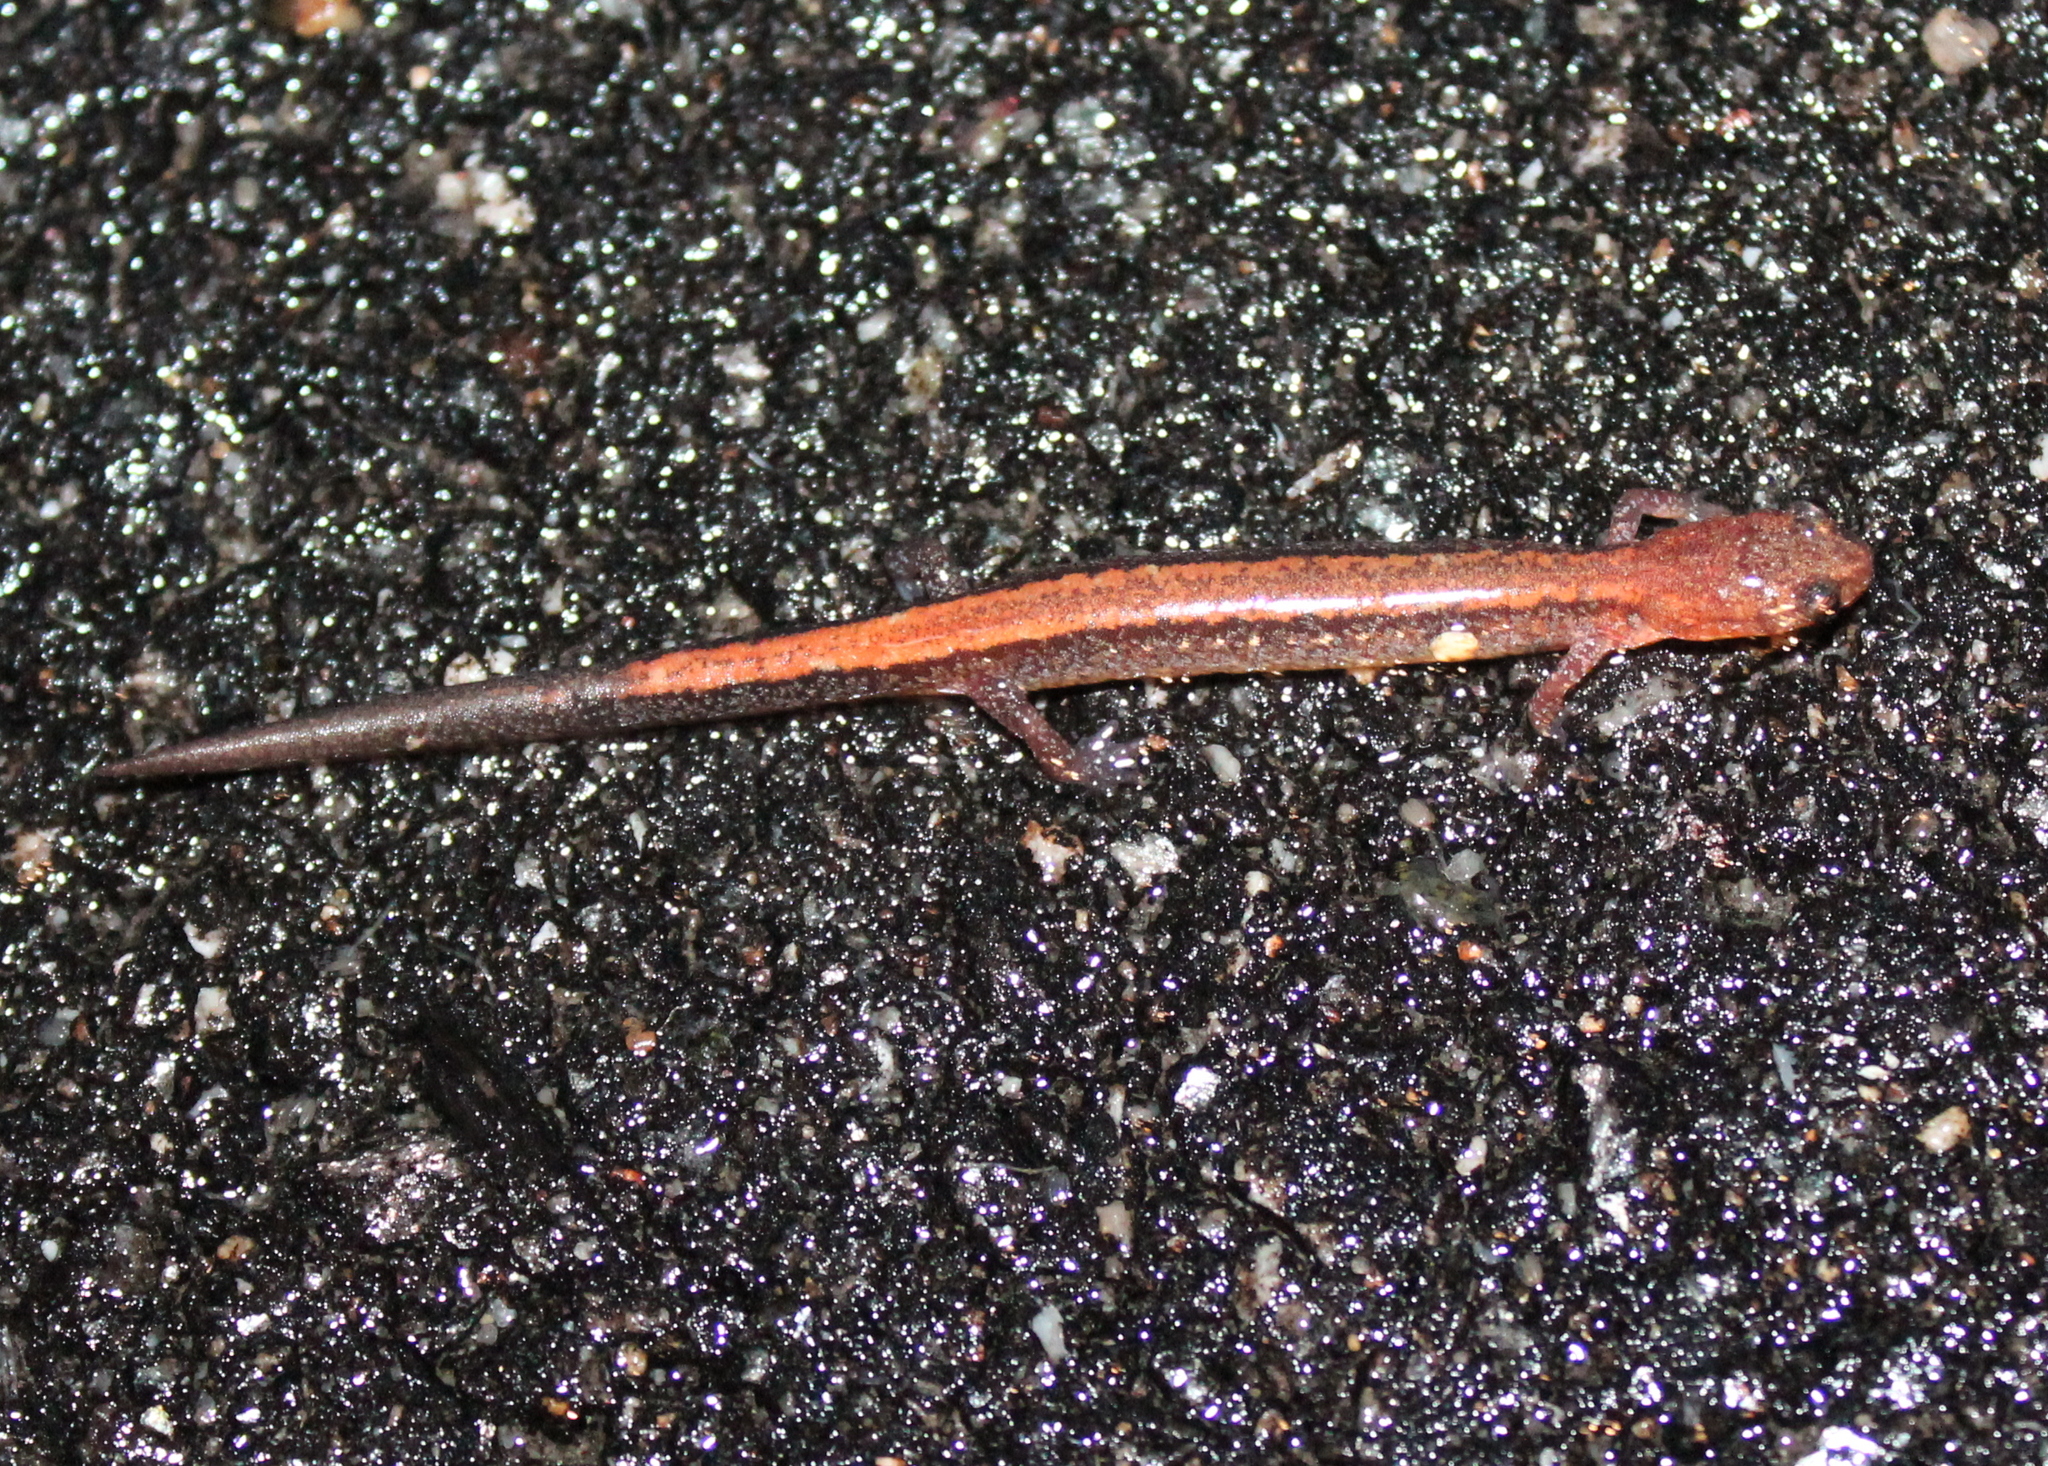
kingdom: Animalia
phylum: Chordata
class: Amphibia
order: Caudata
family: Plethodontidae
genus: Plethodon
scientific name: Plethodon cinereus
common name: Redback salamander
